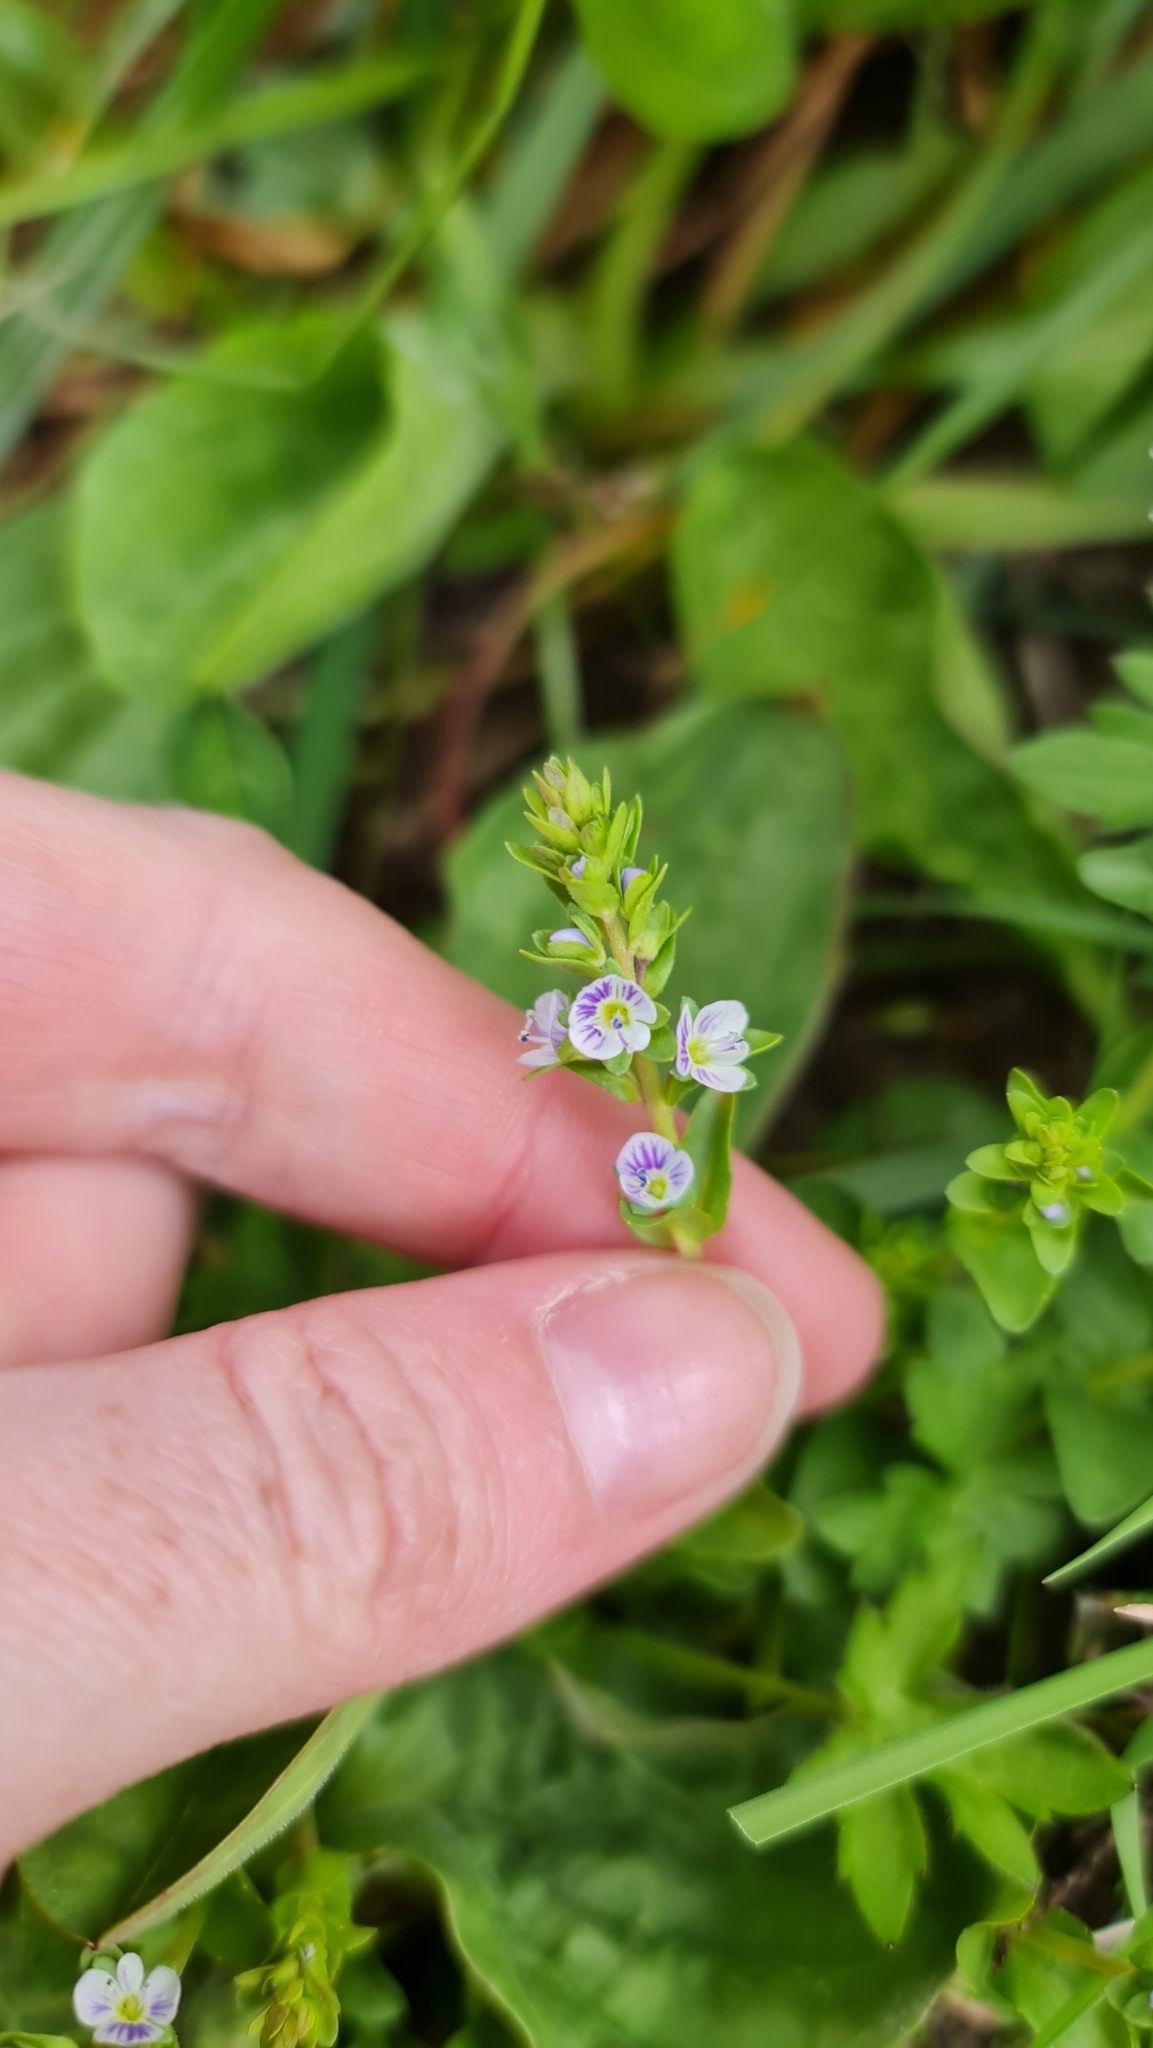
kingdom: Plantae
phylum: Tracheophyta
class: Magnoliopsida
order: Lamiales
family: Plantaginaceae
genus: Veronica
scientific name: Veronica serpyllifolia
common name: Thyme-leaved speedwell
